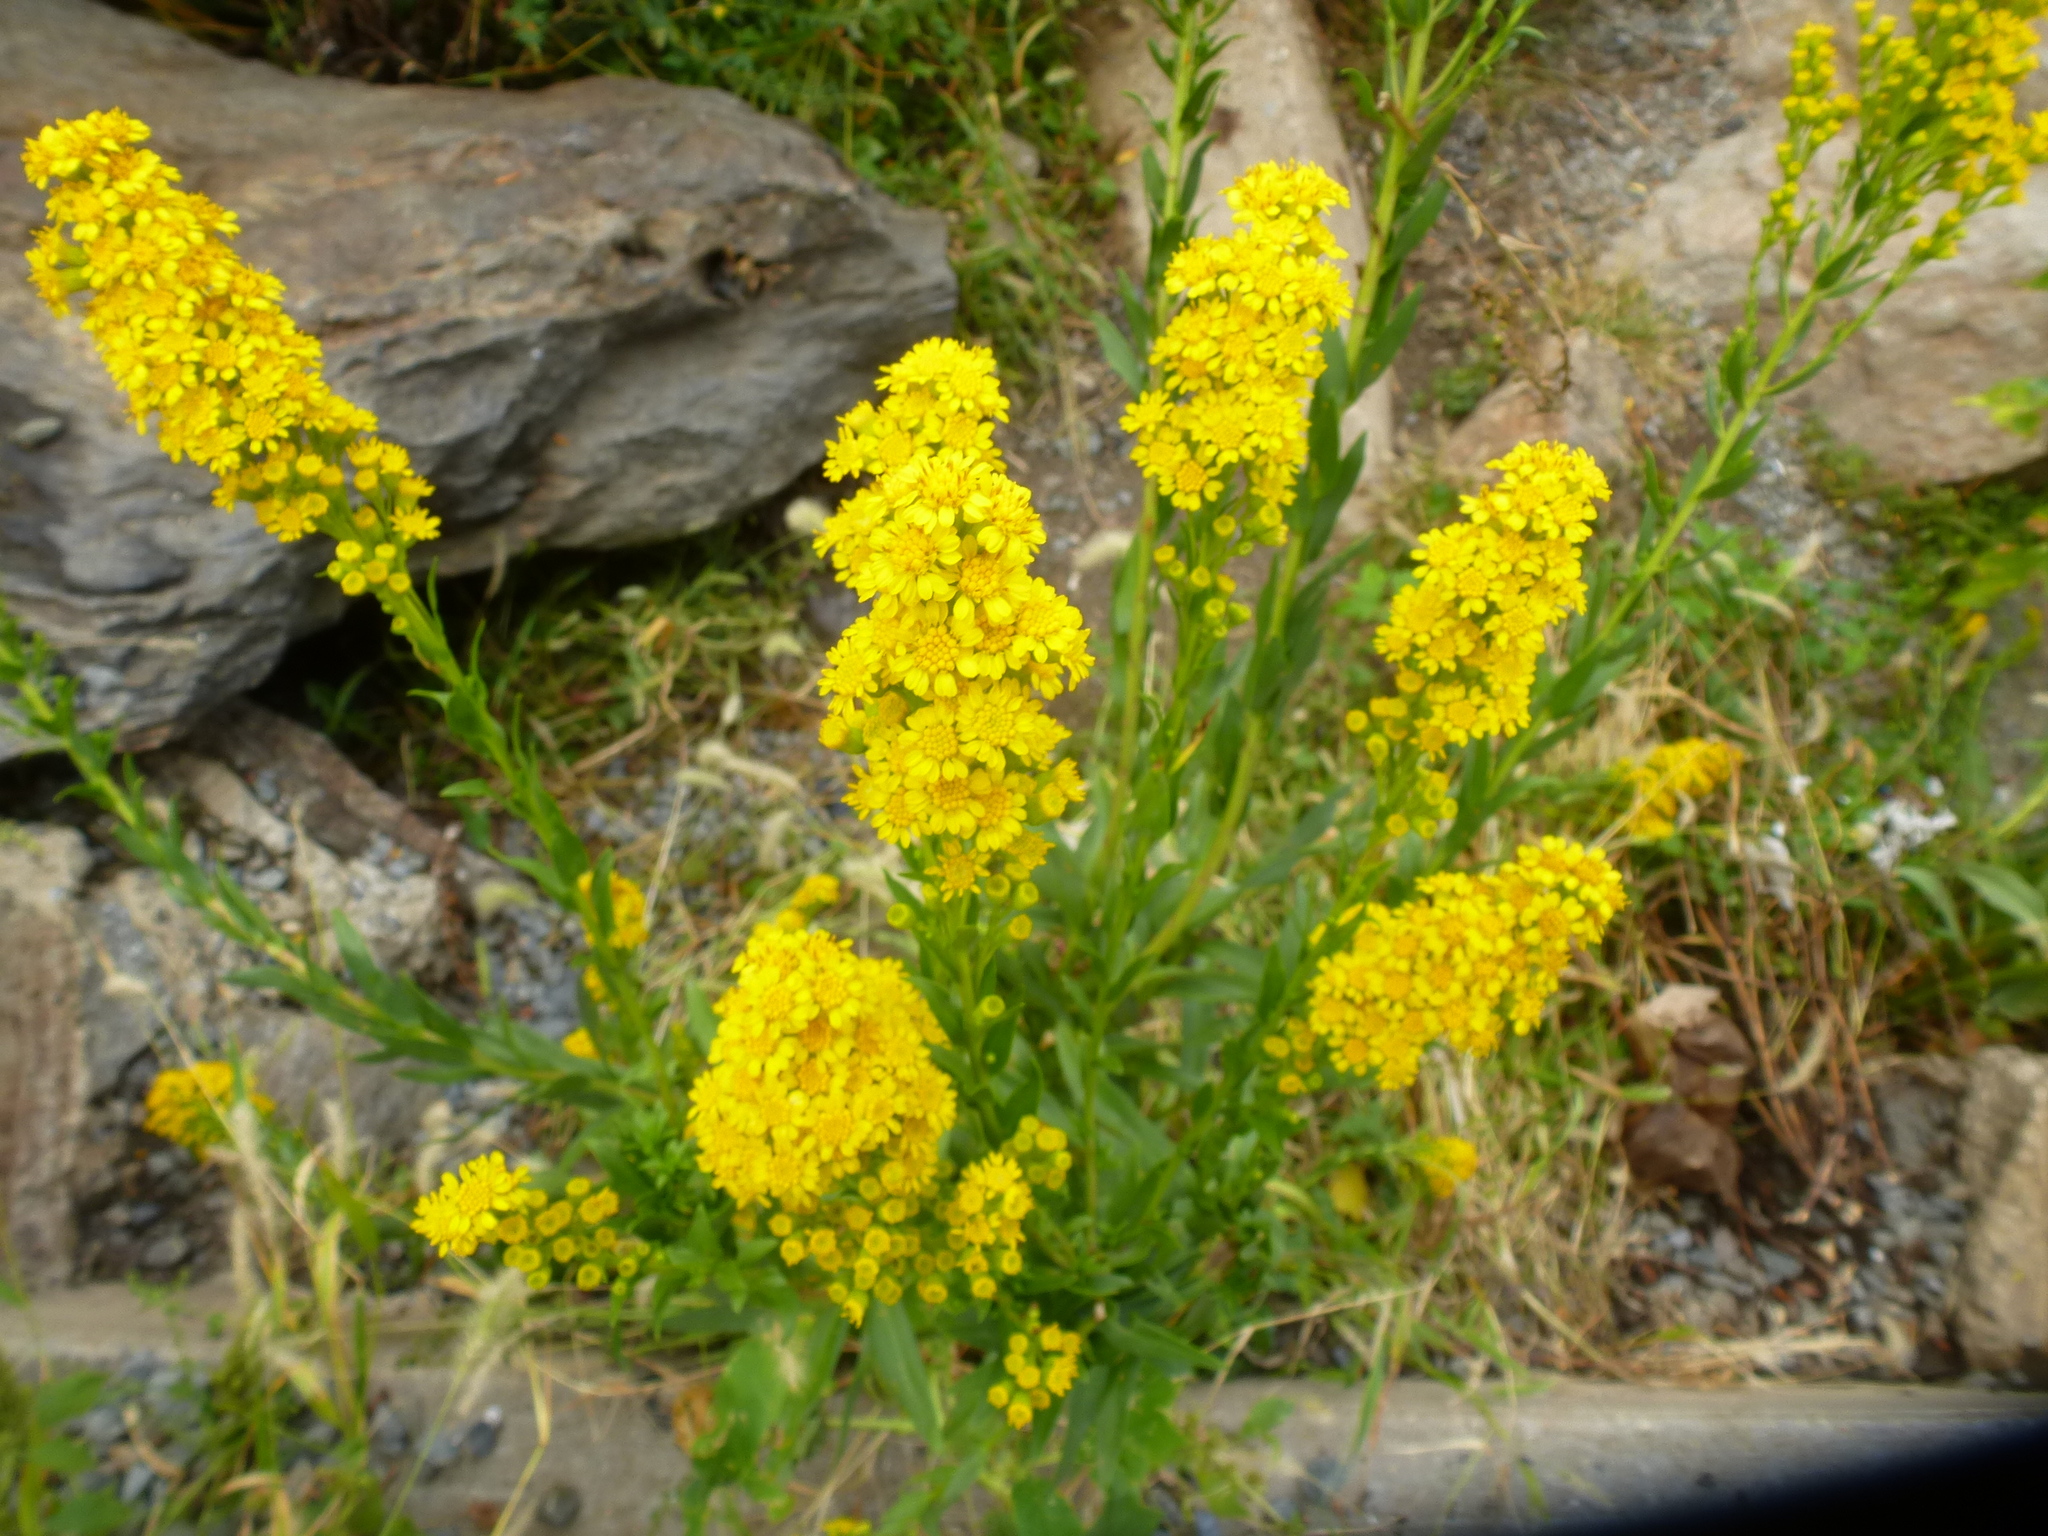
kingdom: Plantae
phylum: Tracheophyta
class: Magnoliopsida
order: Asterales
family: Asteraceae
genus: Solidago
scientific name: Solidago sempervirens
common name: Salt-marsh goldenrod
